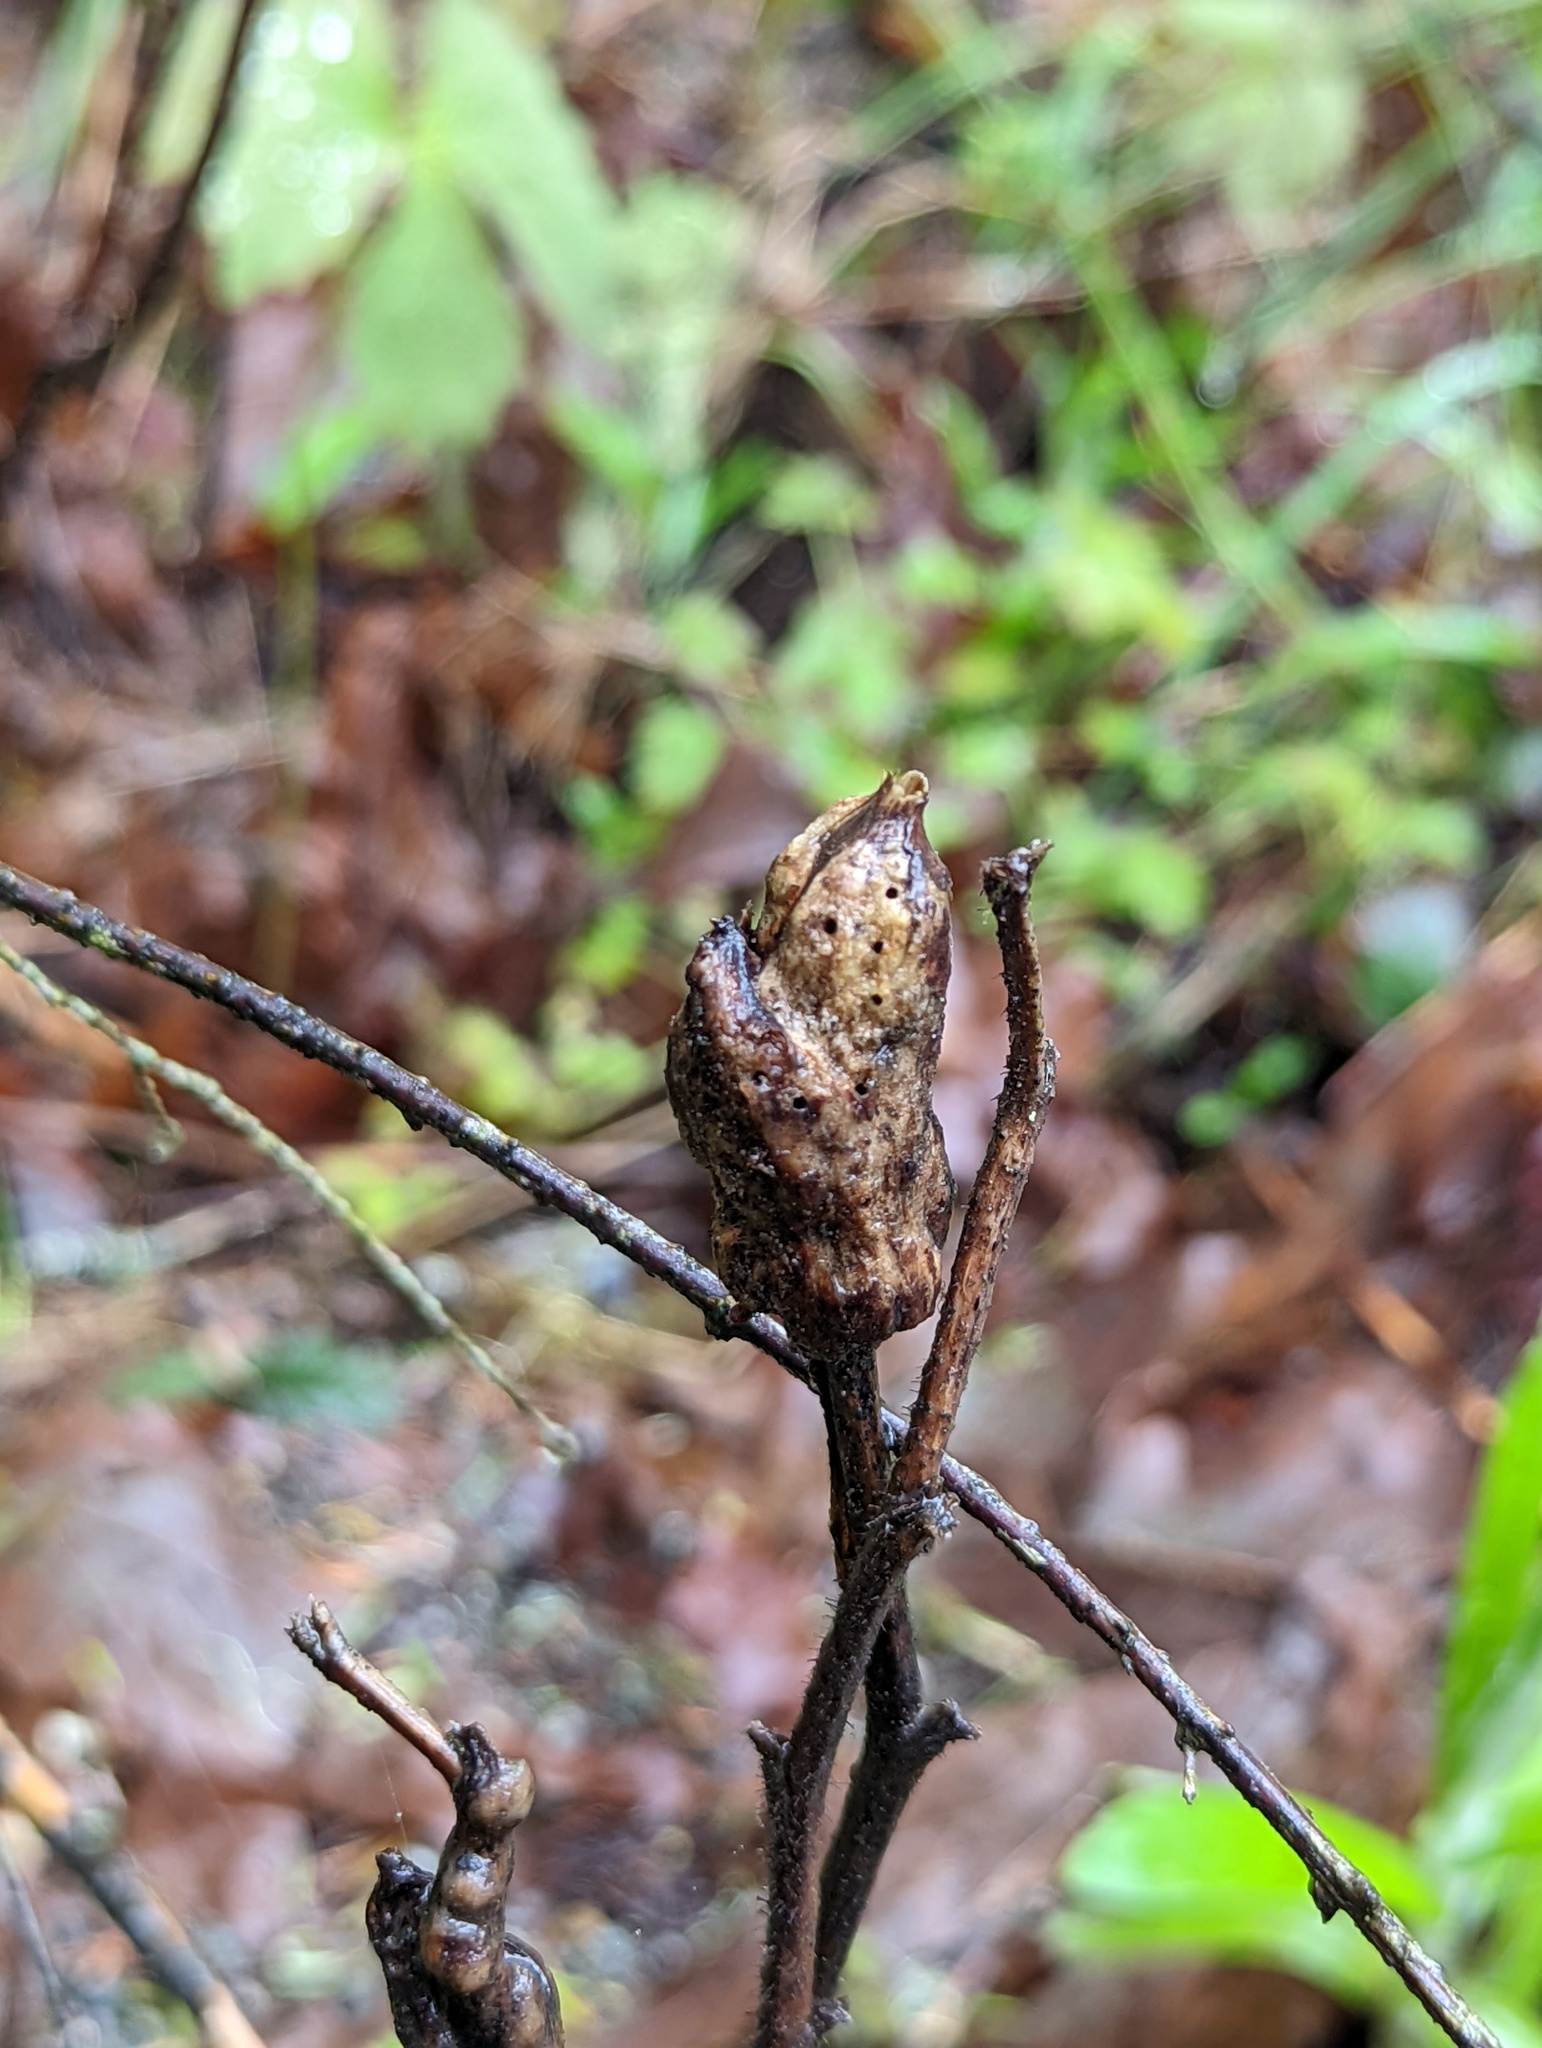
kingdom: Animalia
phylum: Arthropoda
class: Insecta
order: Hymenoptera
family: Cynipidae
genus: Diastrophus
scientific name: Diastrophus
